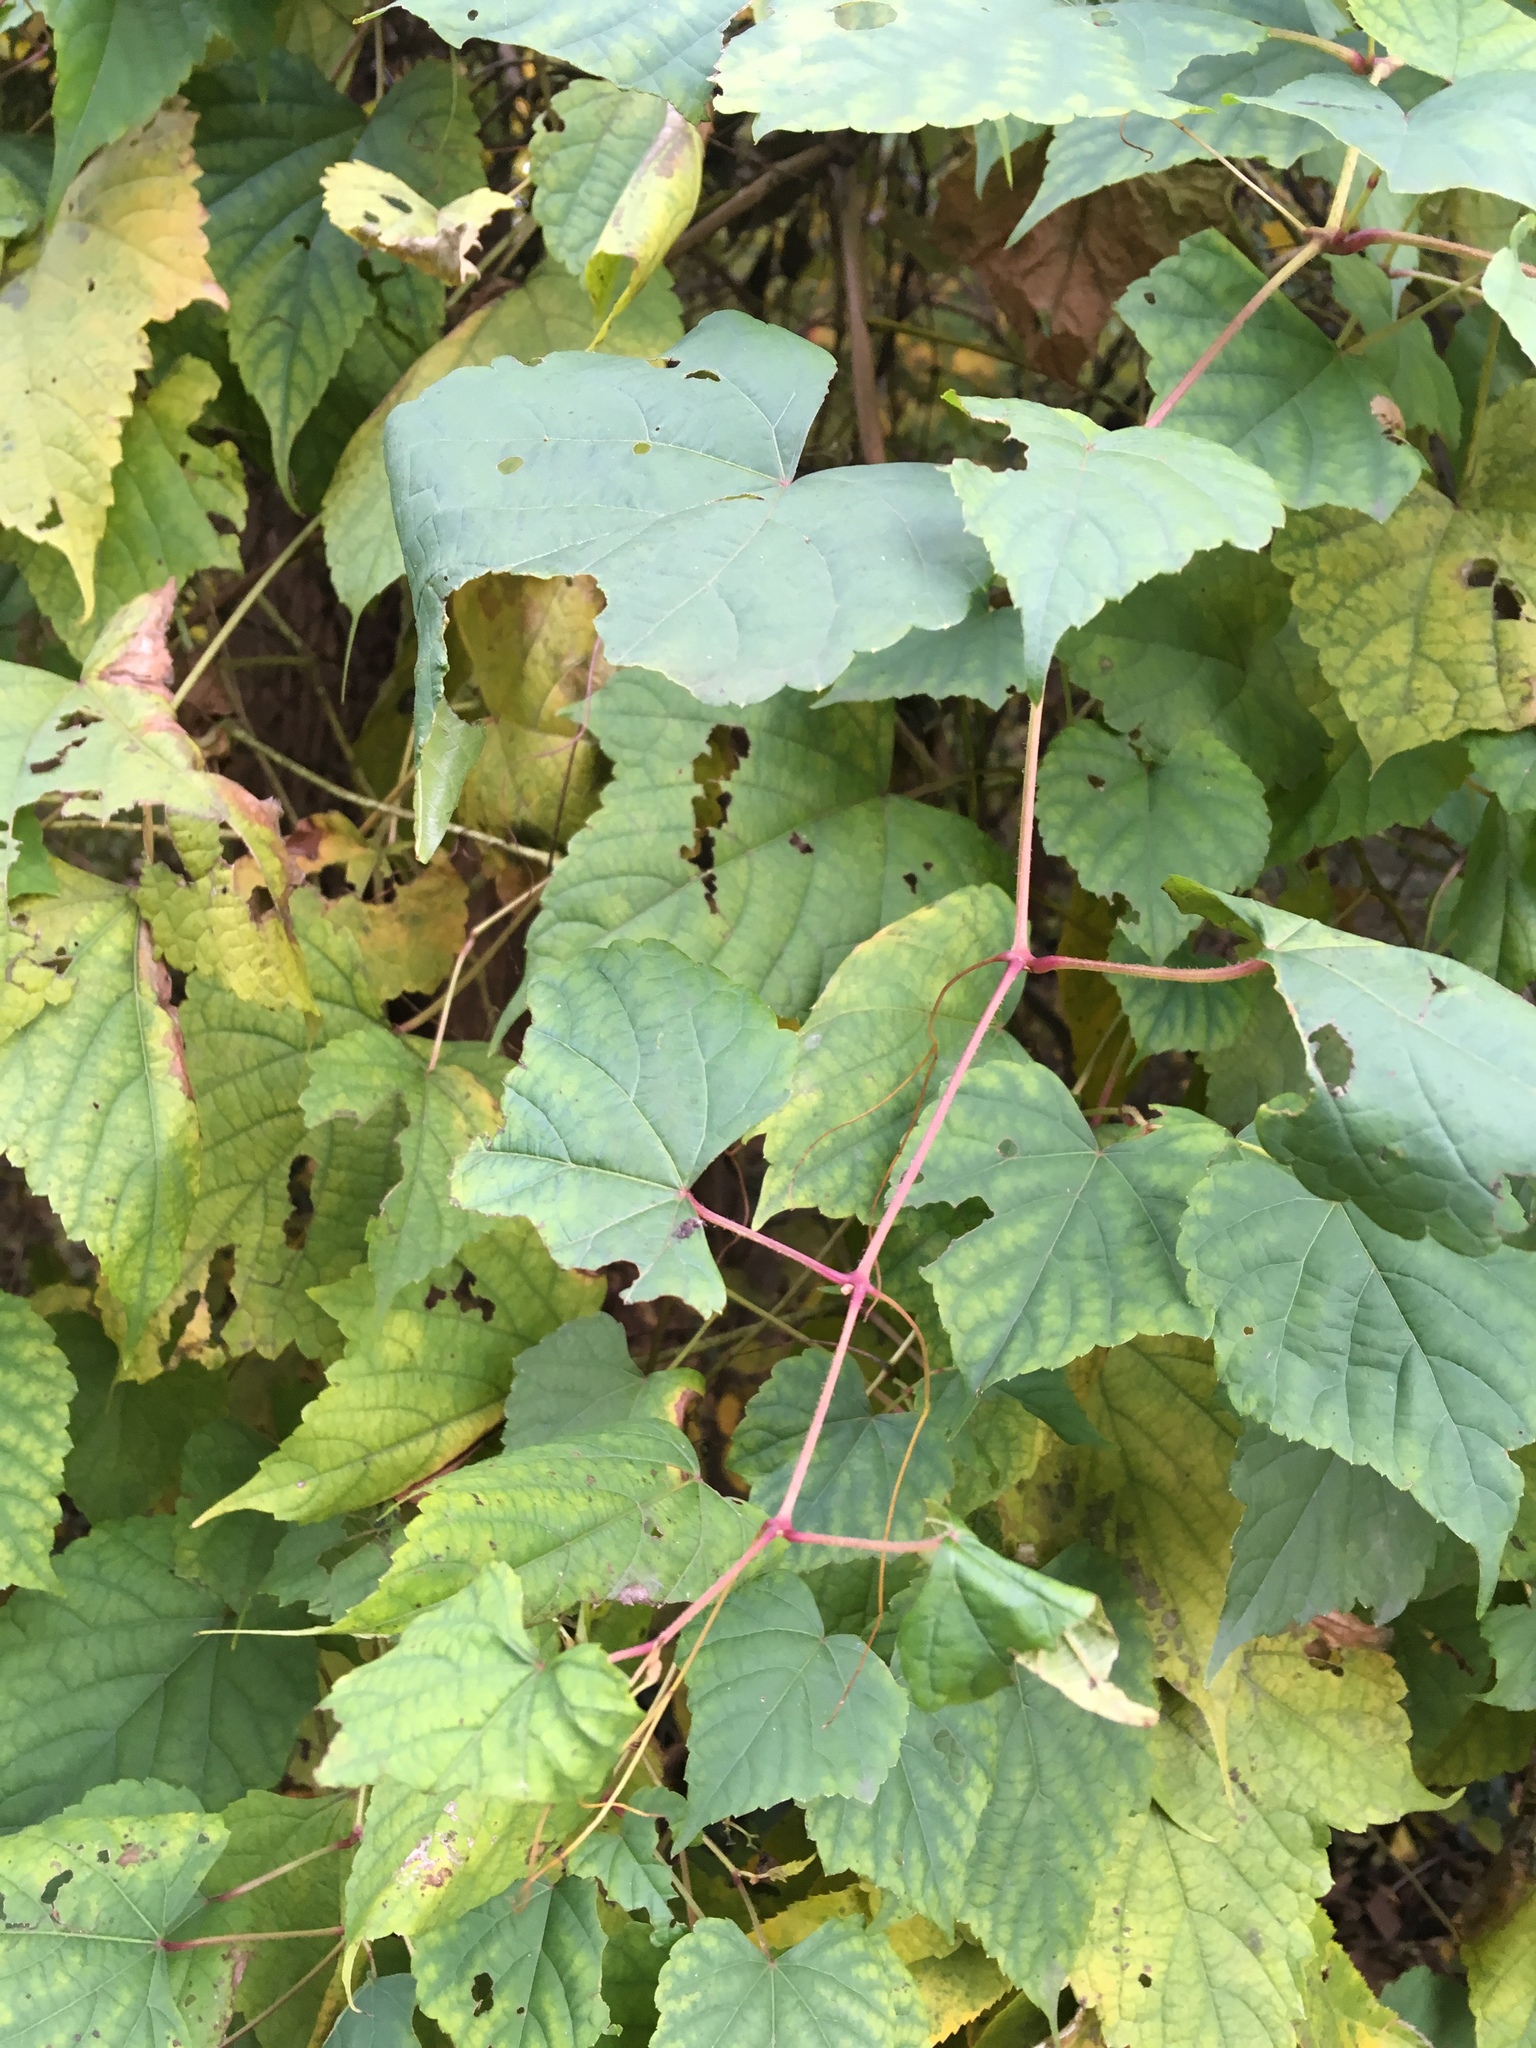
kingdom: Plantae
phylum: Tracheophyta
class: Magnoliopsida
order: Vitales
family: Vitaceae
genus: Ampelopsis
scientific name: Ampelopsis glandulosa
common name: Amur peppervine
